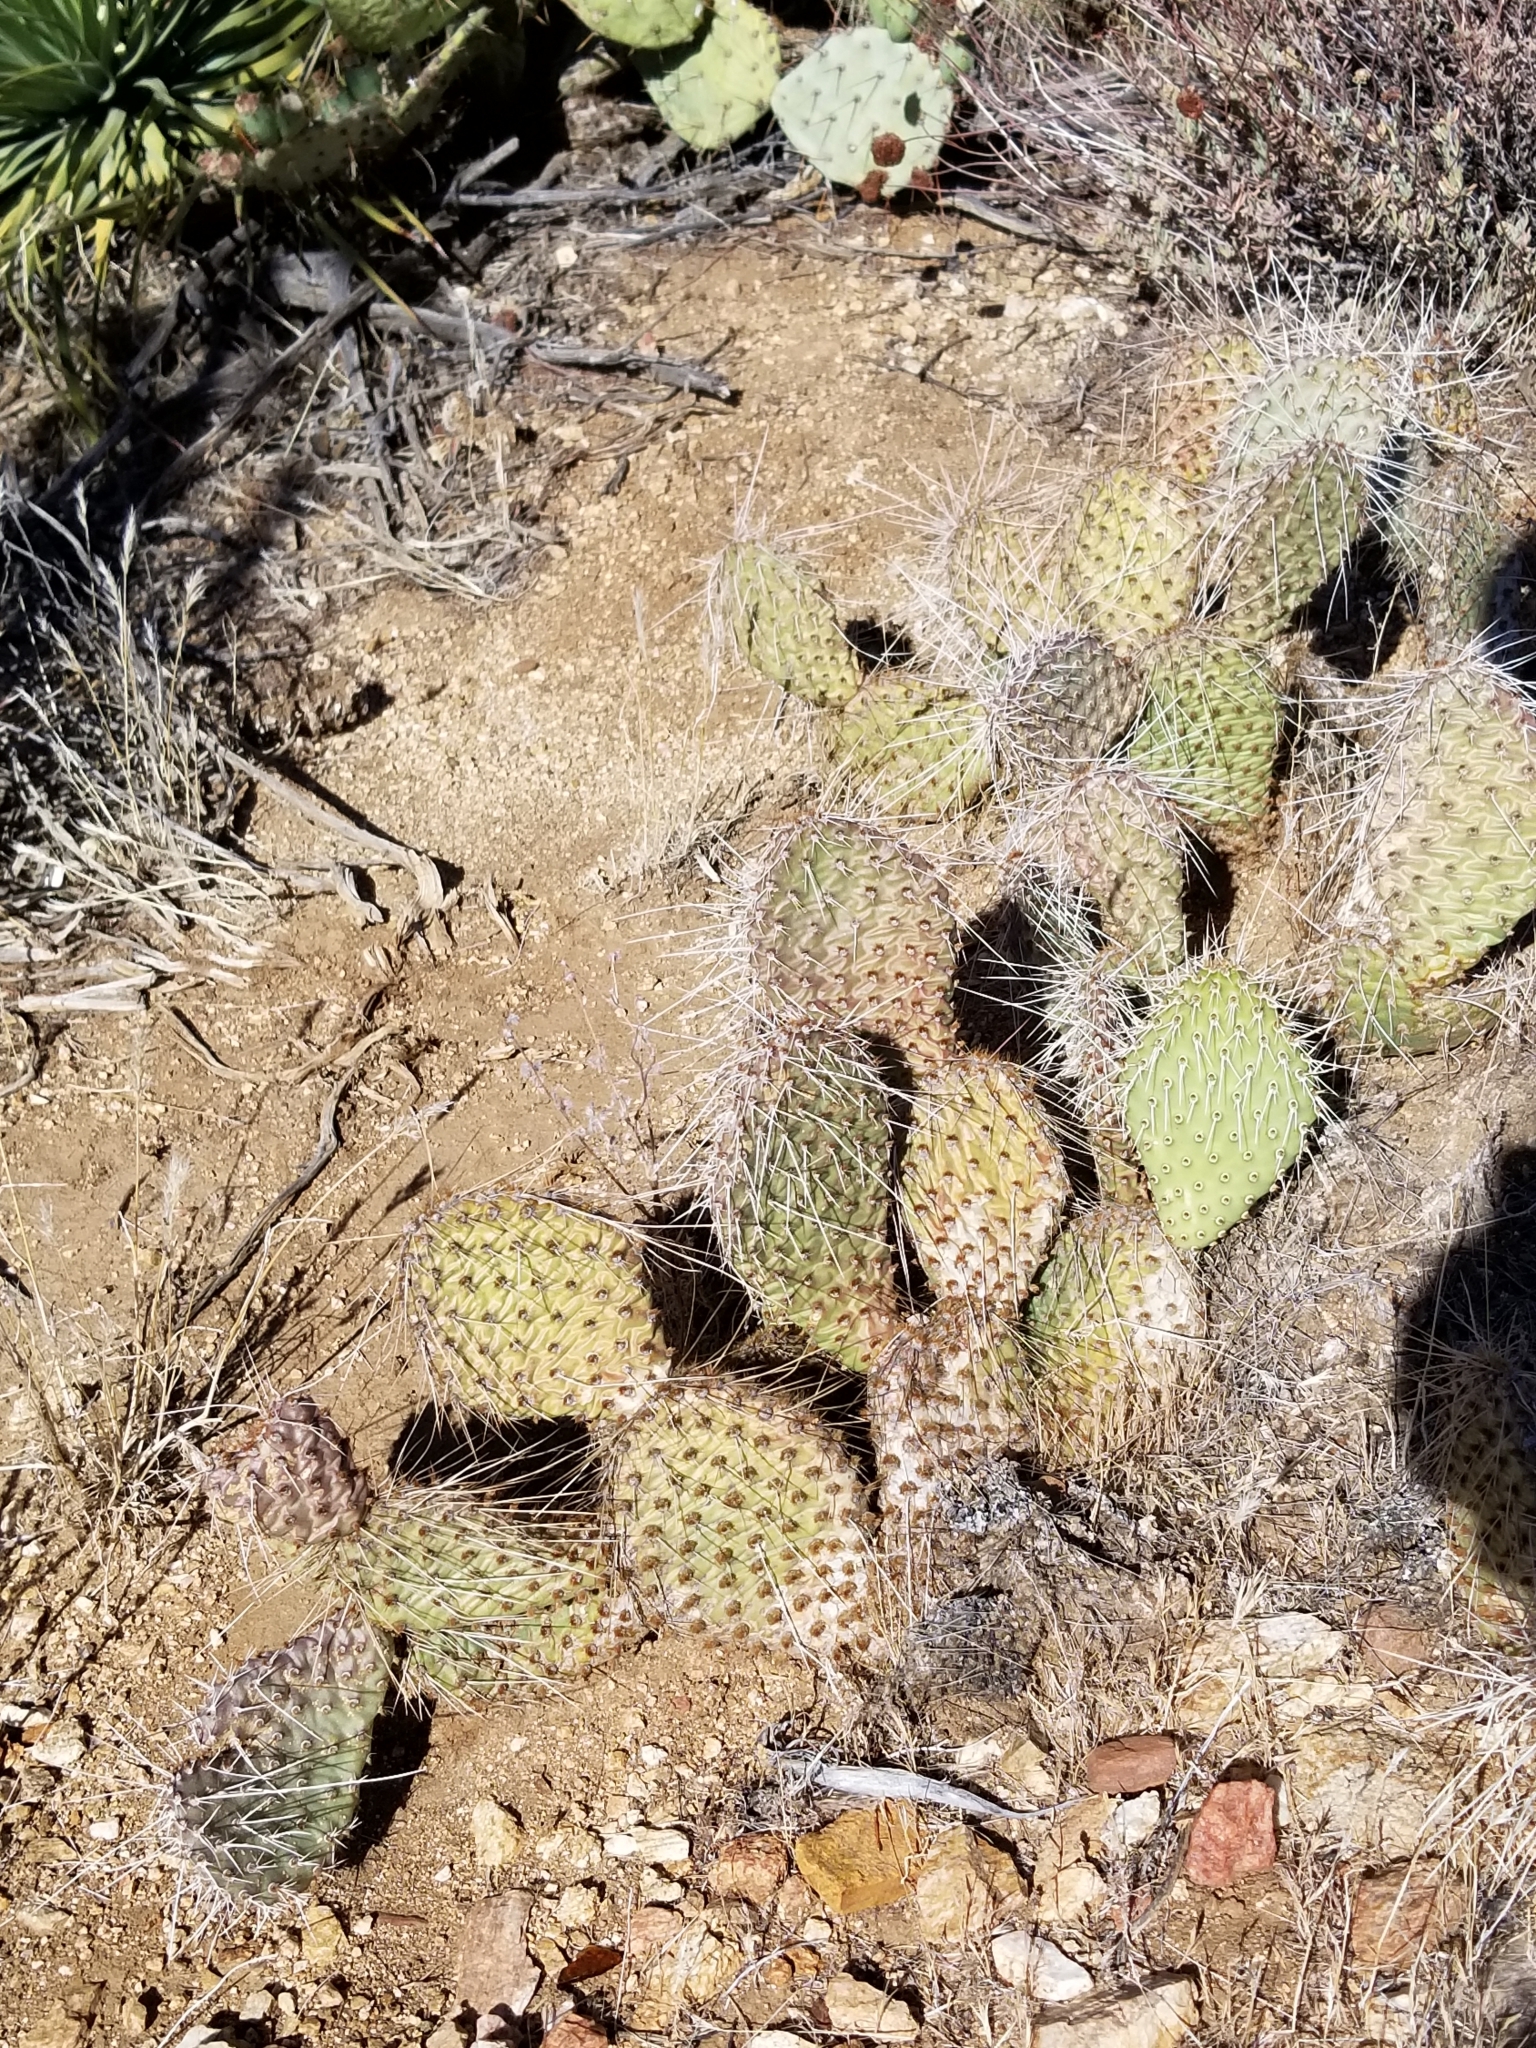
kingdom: Plantae
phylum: Tracheophyta
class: Magnoliopsida
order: Caryophyllales
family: Cactaceae
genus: Opuntia
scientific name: Opuntia polyacantha
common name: Plains prickly-pear
